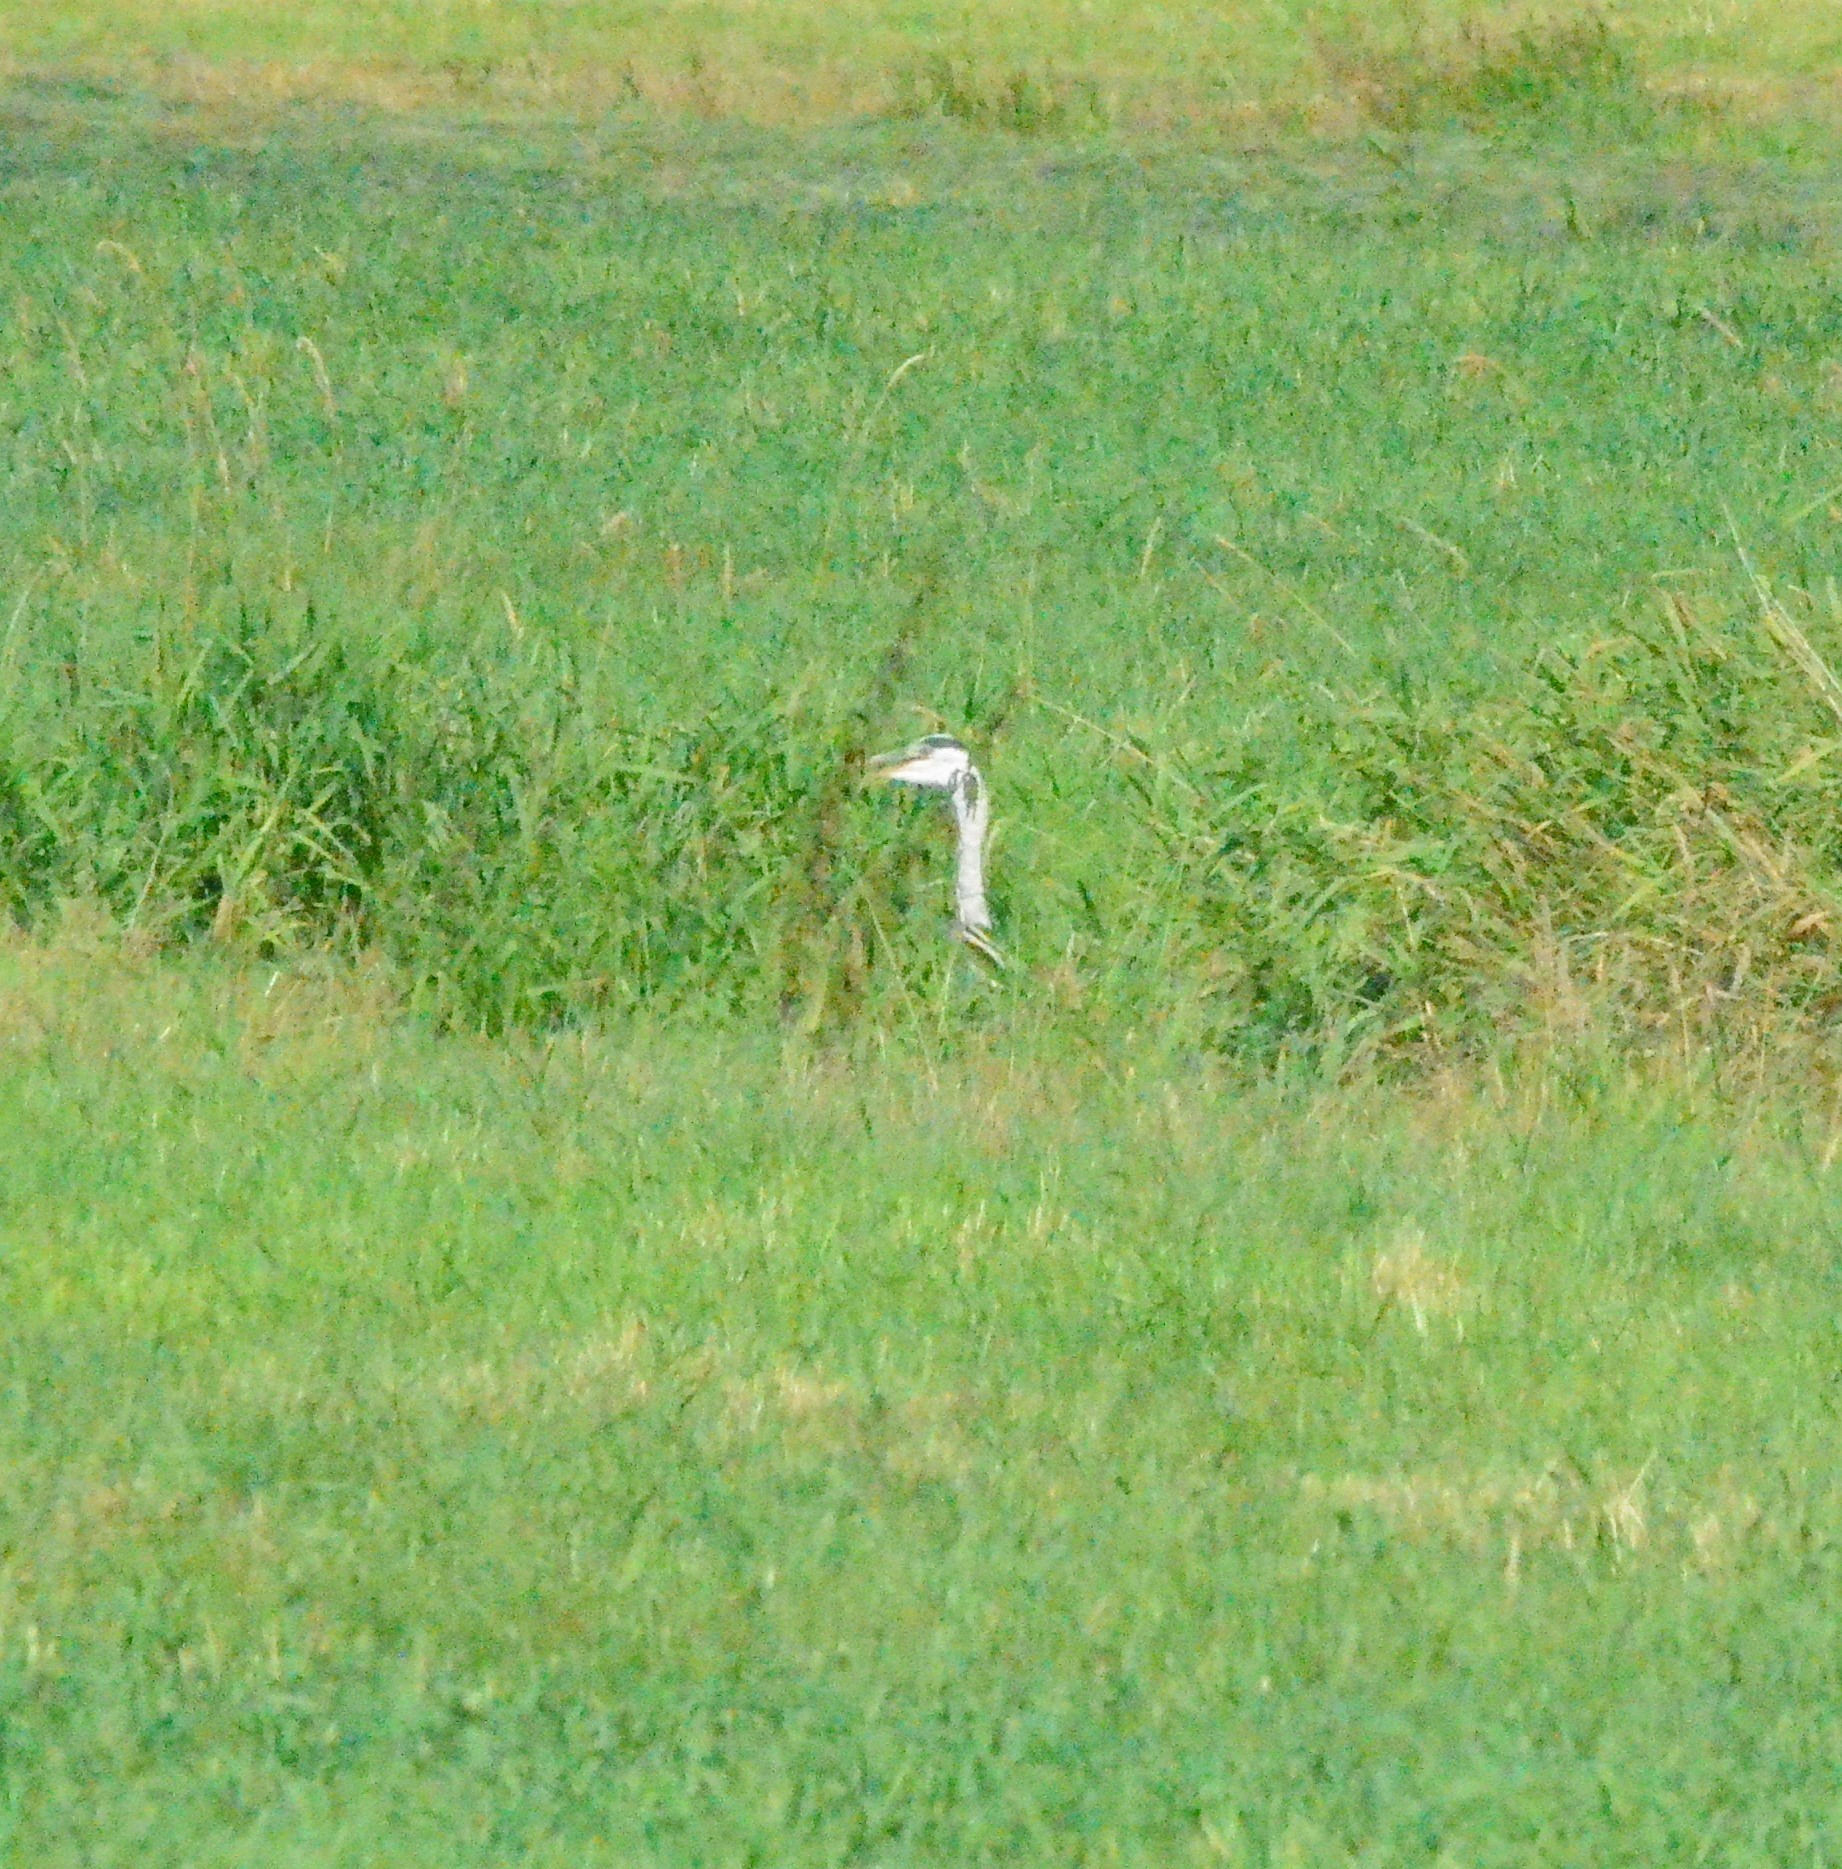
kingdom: Animalia
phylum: Chordata
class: Aves
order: Pelecaniformes
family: Ardeidae
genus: Ardea
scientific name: Ardea cinerea
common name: Grey heron
